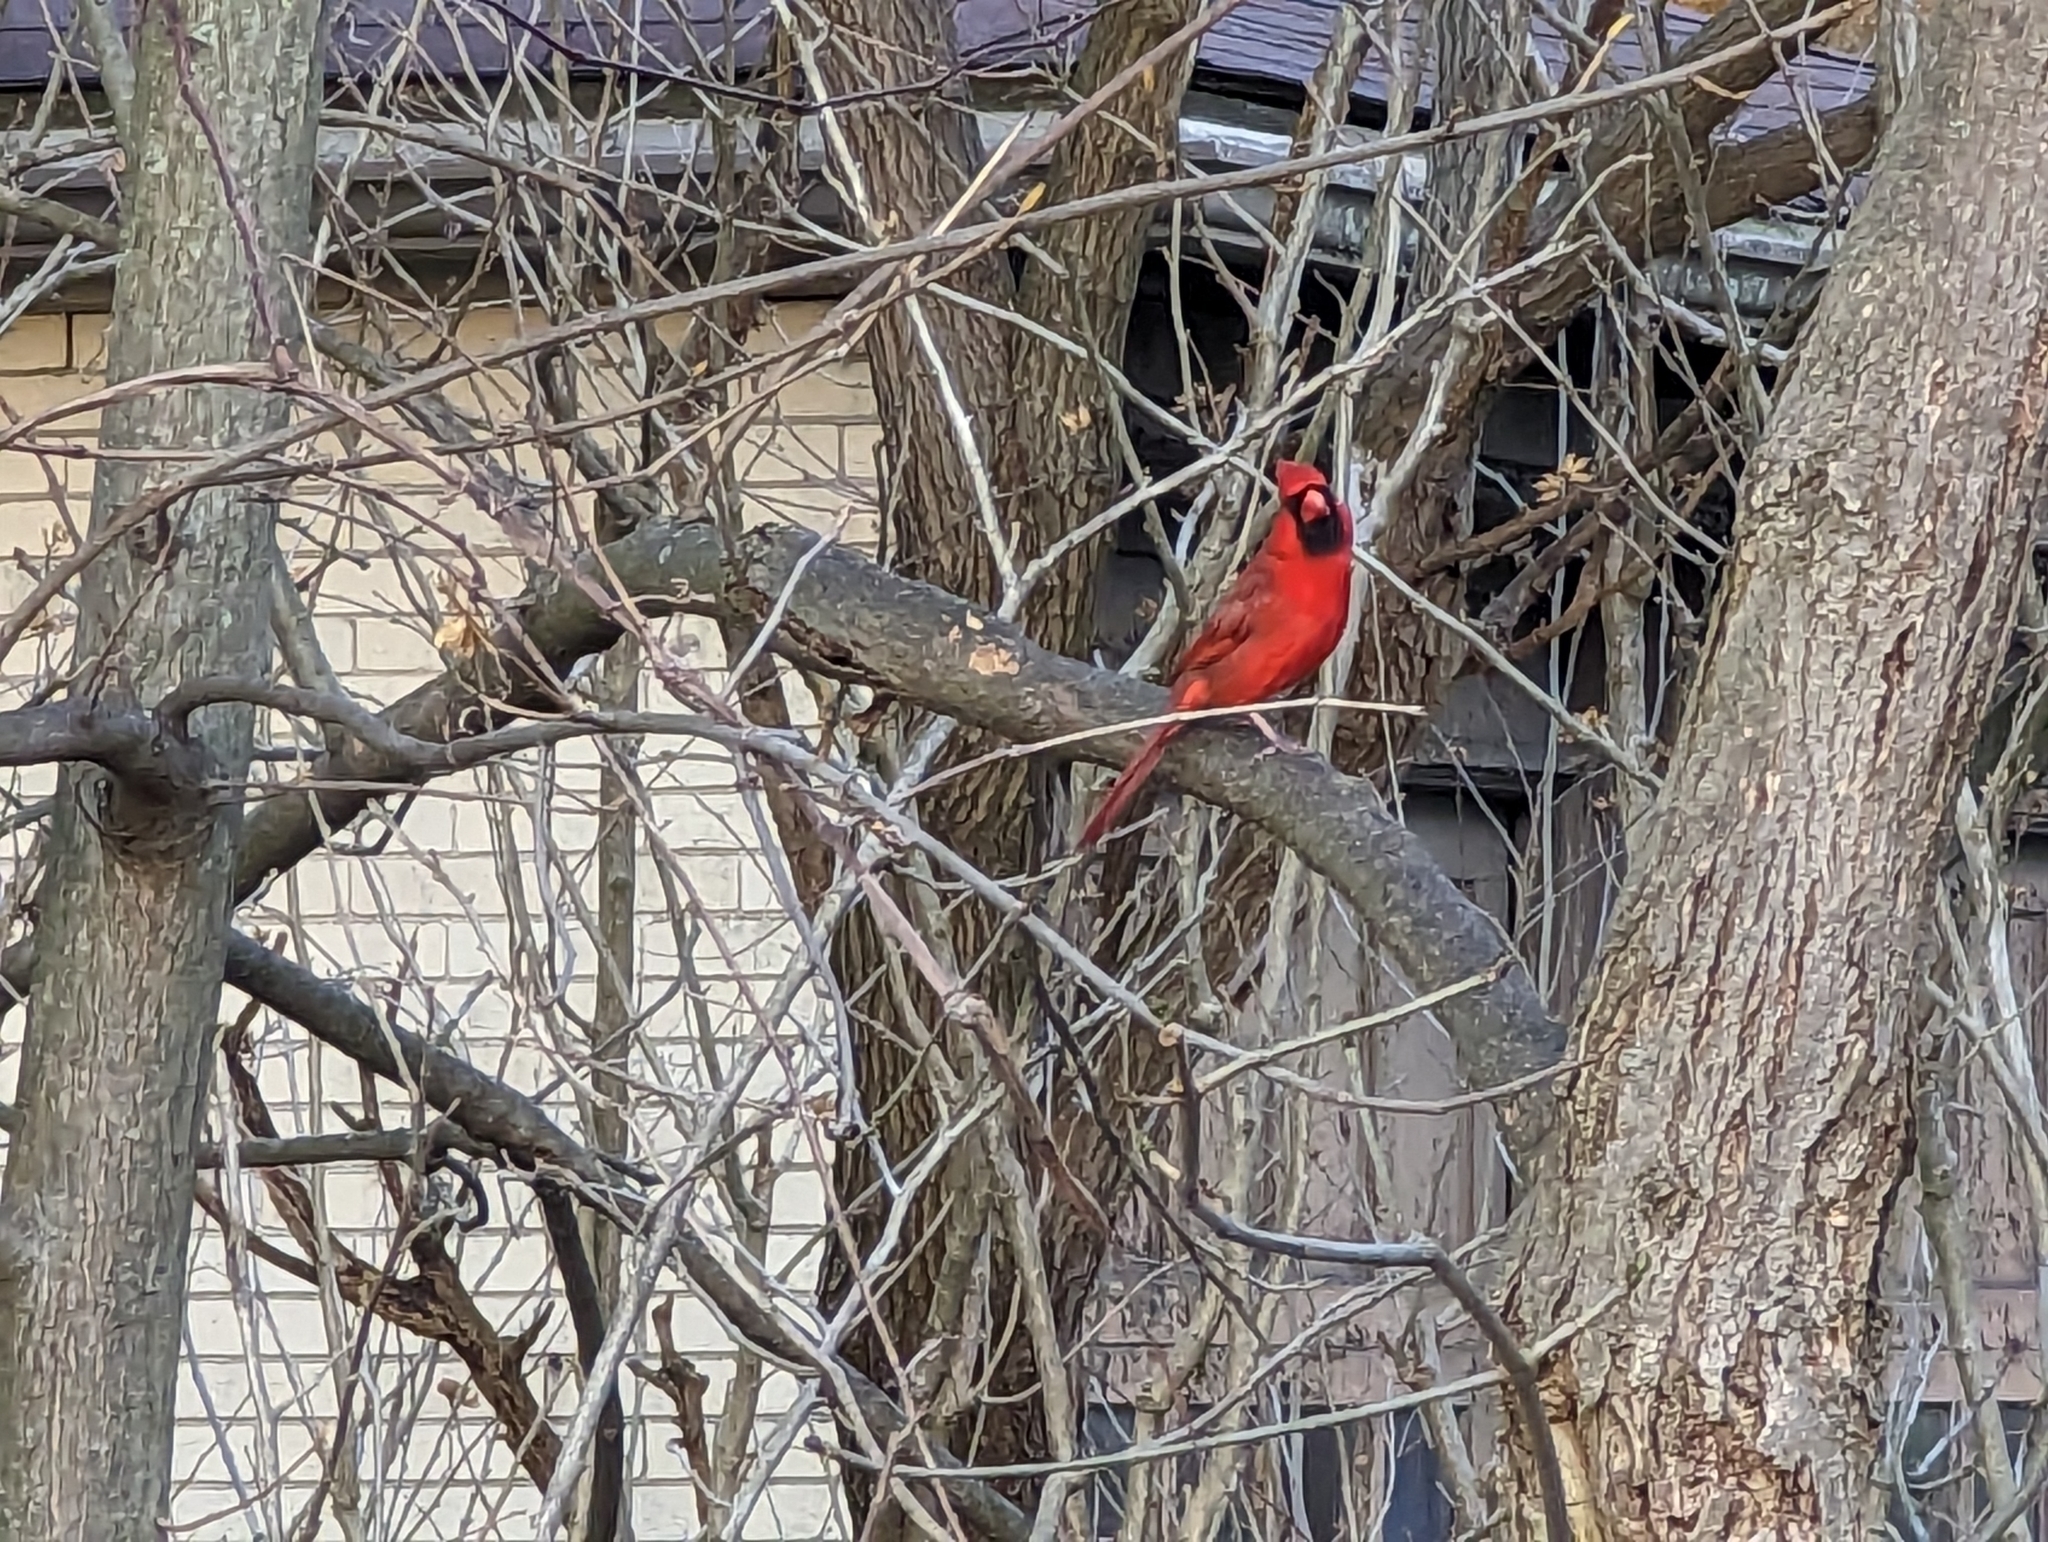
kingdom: Animalia
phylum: Chordata
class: Aves
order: Passeriformes
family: Cardinalidae
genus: Cardinalis
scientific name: Cardinalis cardinalis
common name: Northern cardinal
